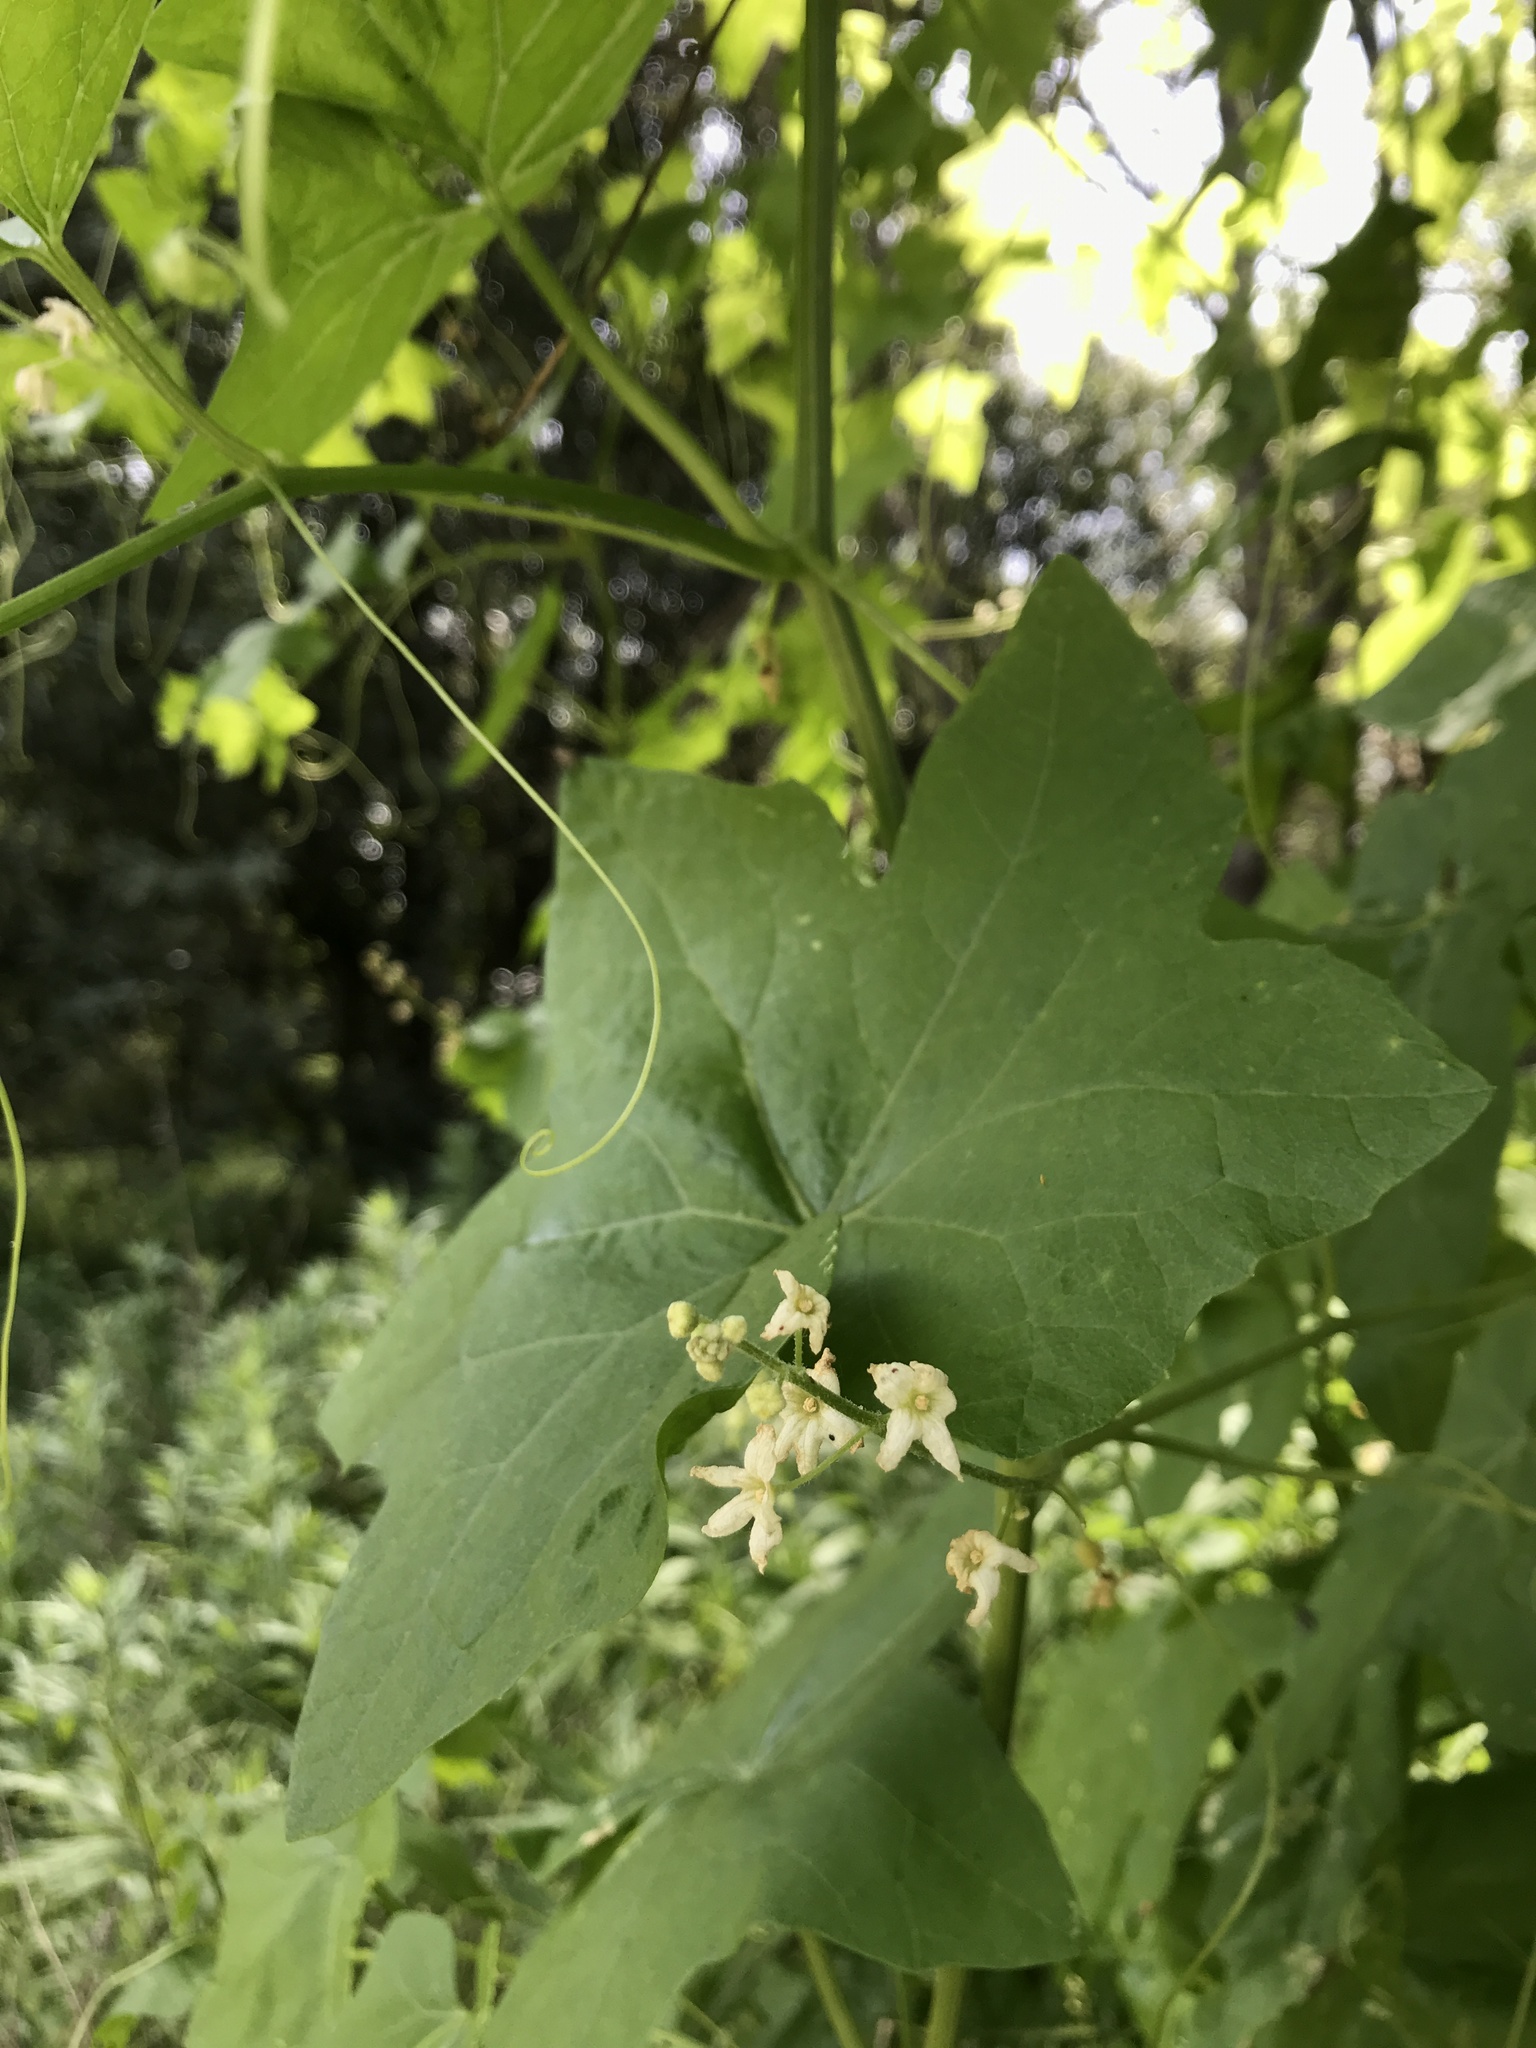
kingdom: Plantae
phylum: Tracheophyta
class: Magnoliopsida
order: Cucurbitales
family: Cucurbitaceae
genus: Marah
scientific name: Marah fabacea
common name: California manroot
